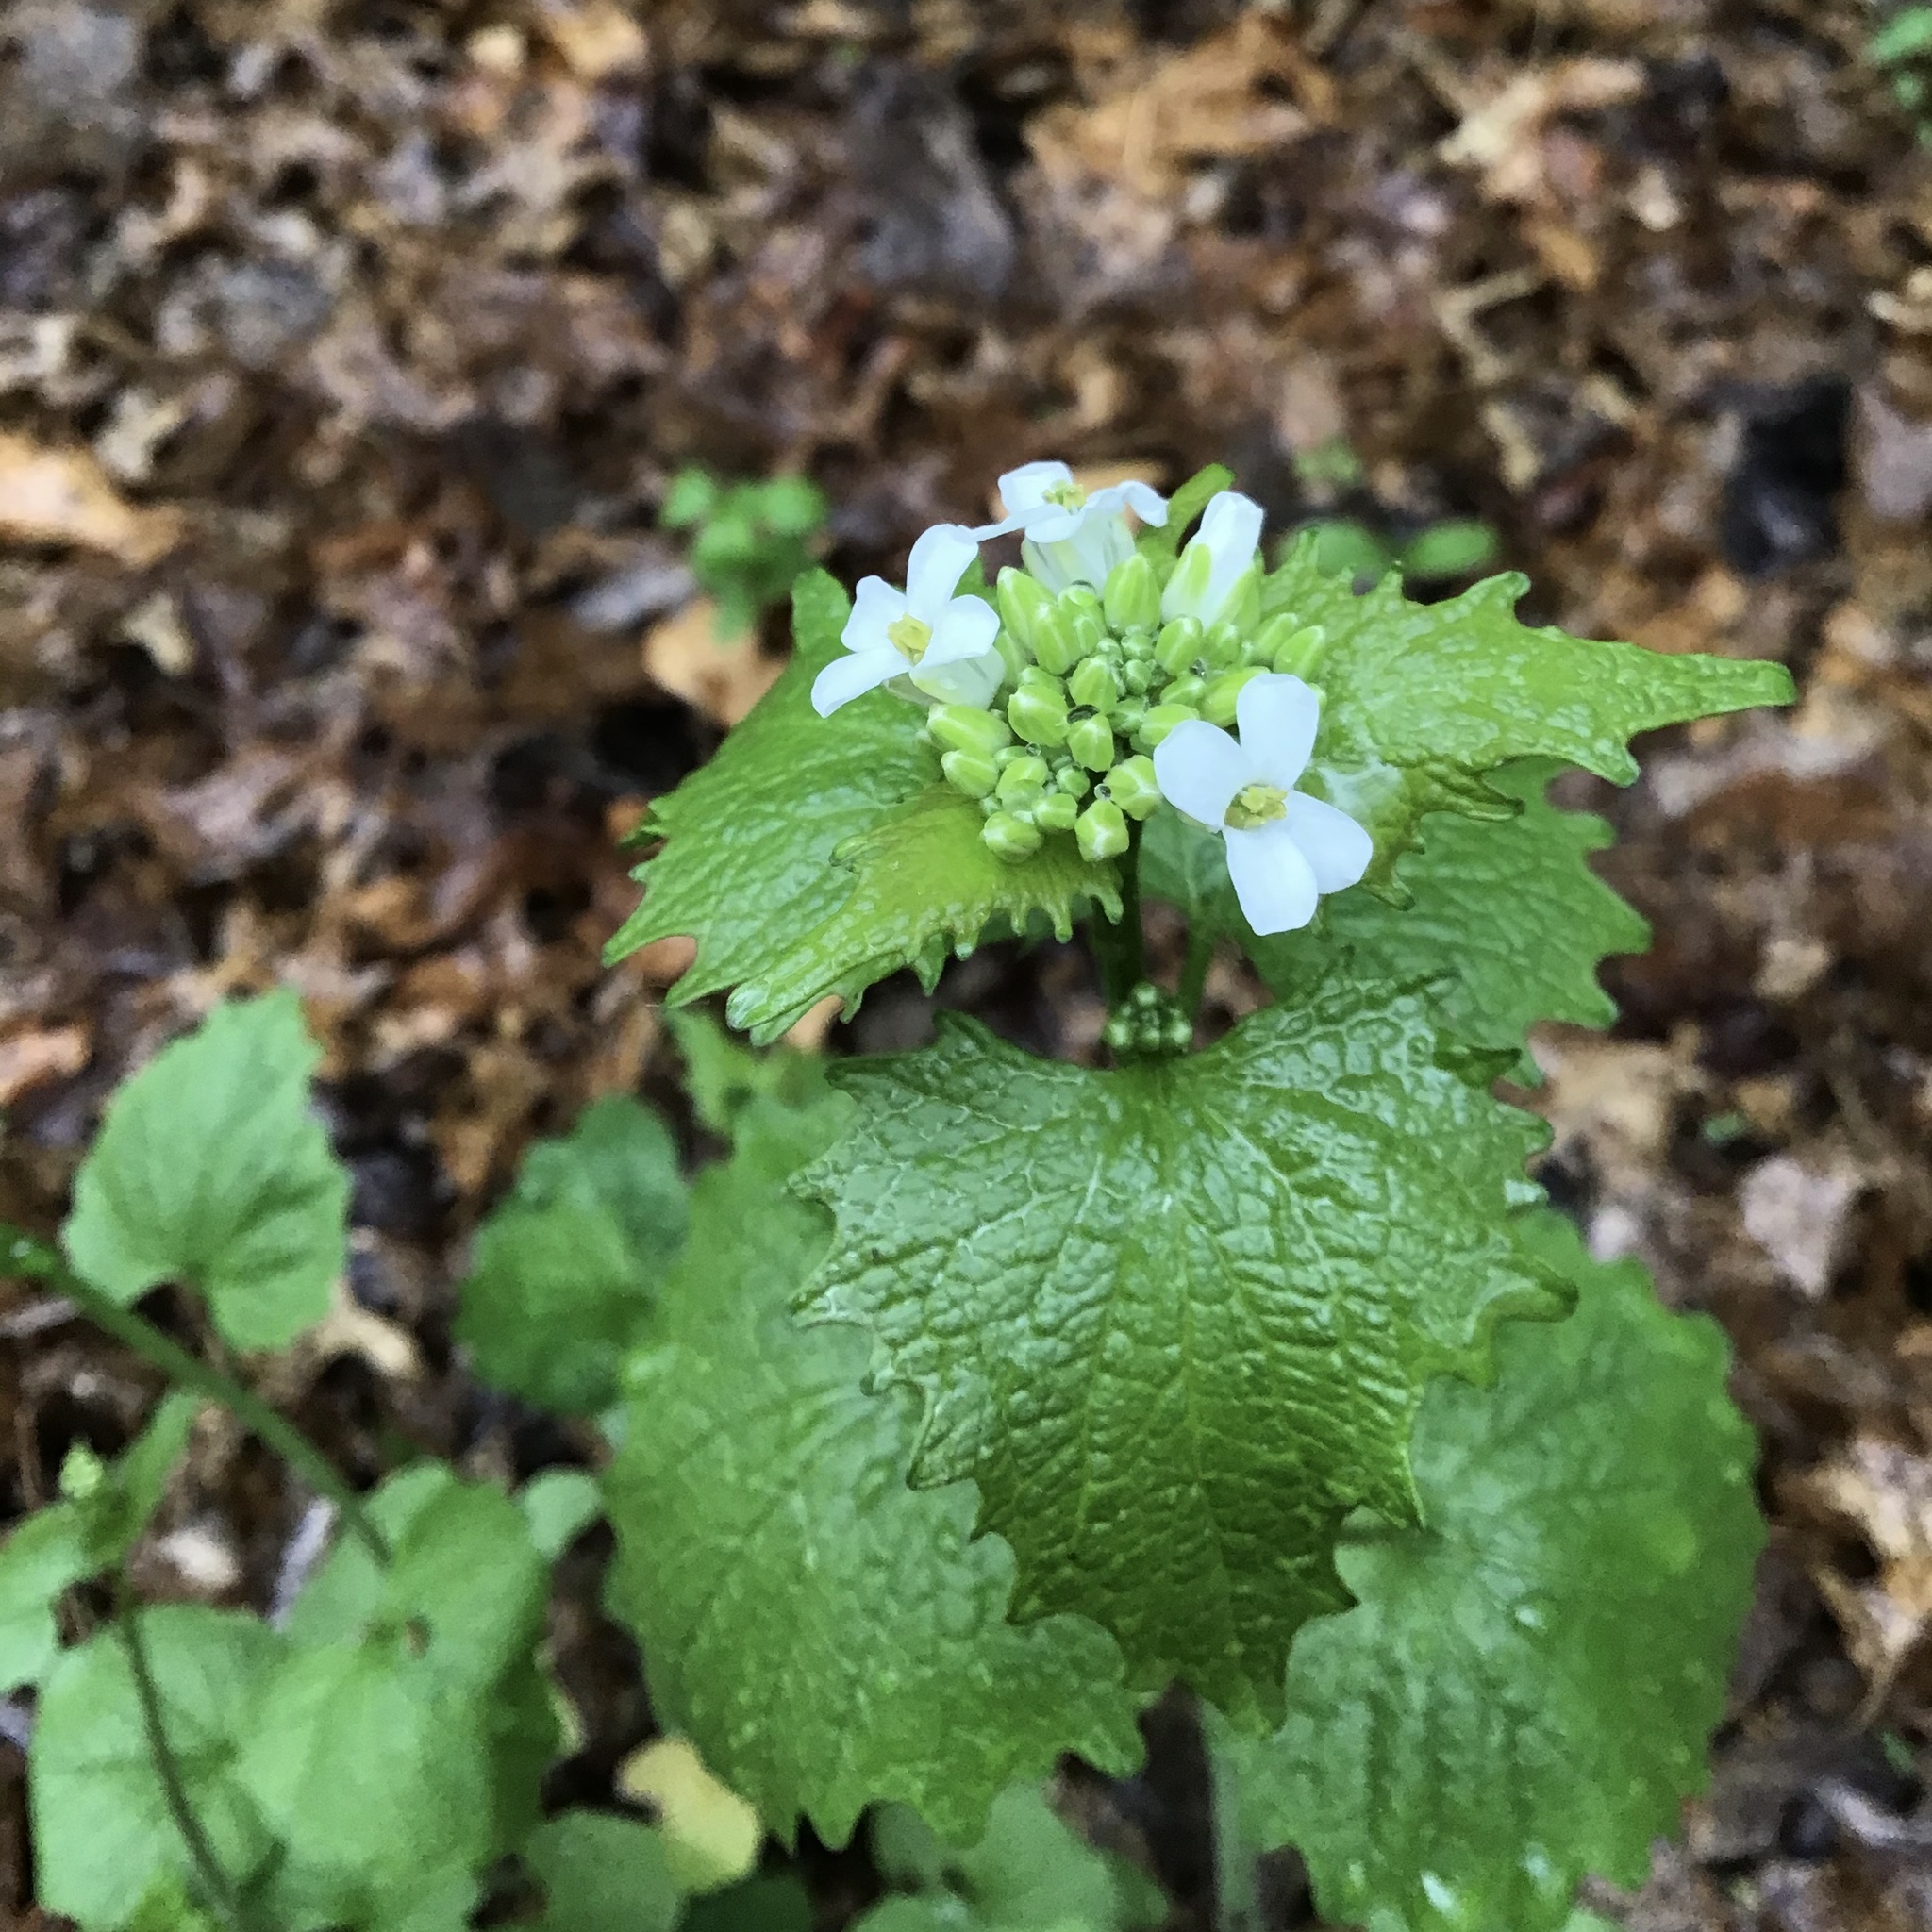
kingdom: Plantae
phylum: Tracheophyta
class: Magnoliopsida
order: Brassicales
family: Brassicaceae
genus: Alliaria
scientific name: Alliaria petiolata
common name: Garlic mustard
